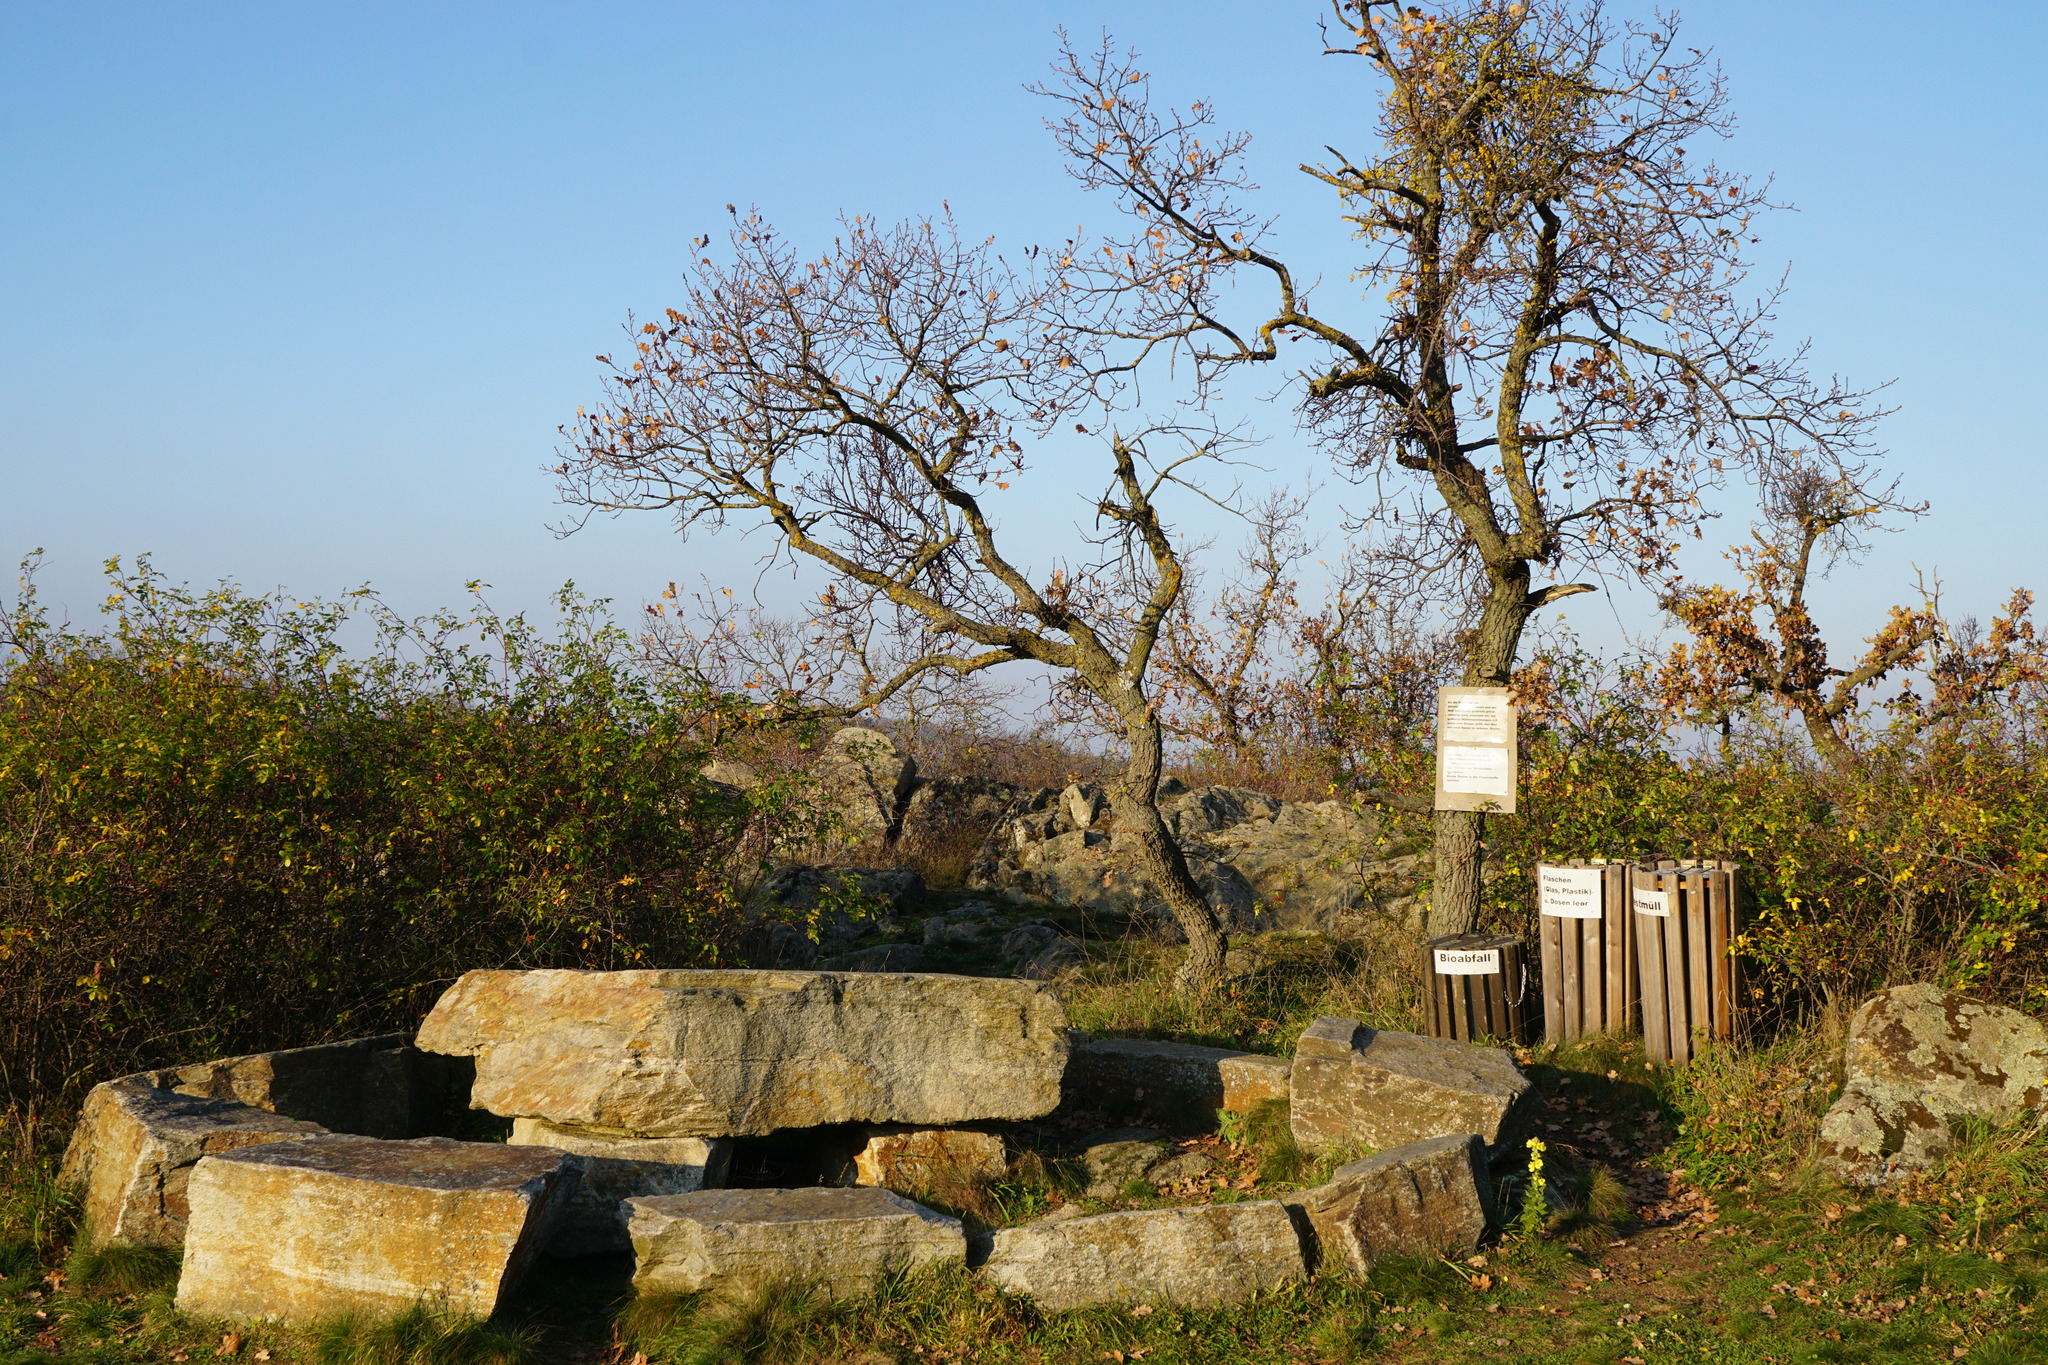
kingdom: Plantae
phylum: Tracheophyta
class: Magnoliopsida
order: Santalales
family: Loranthaceae
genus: Loranthus
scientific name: Loranthus europaeus
